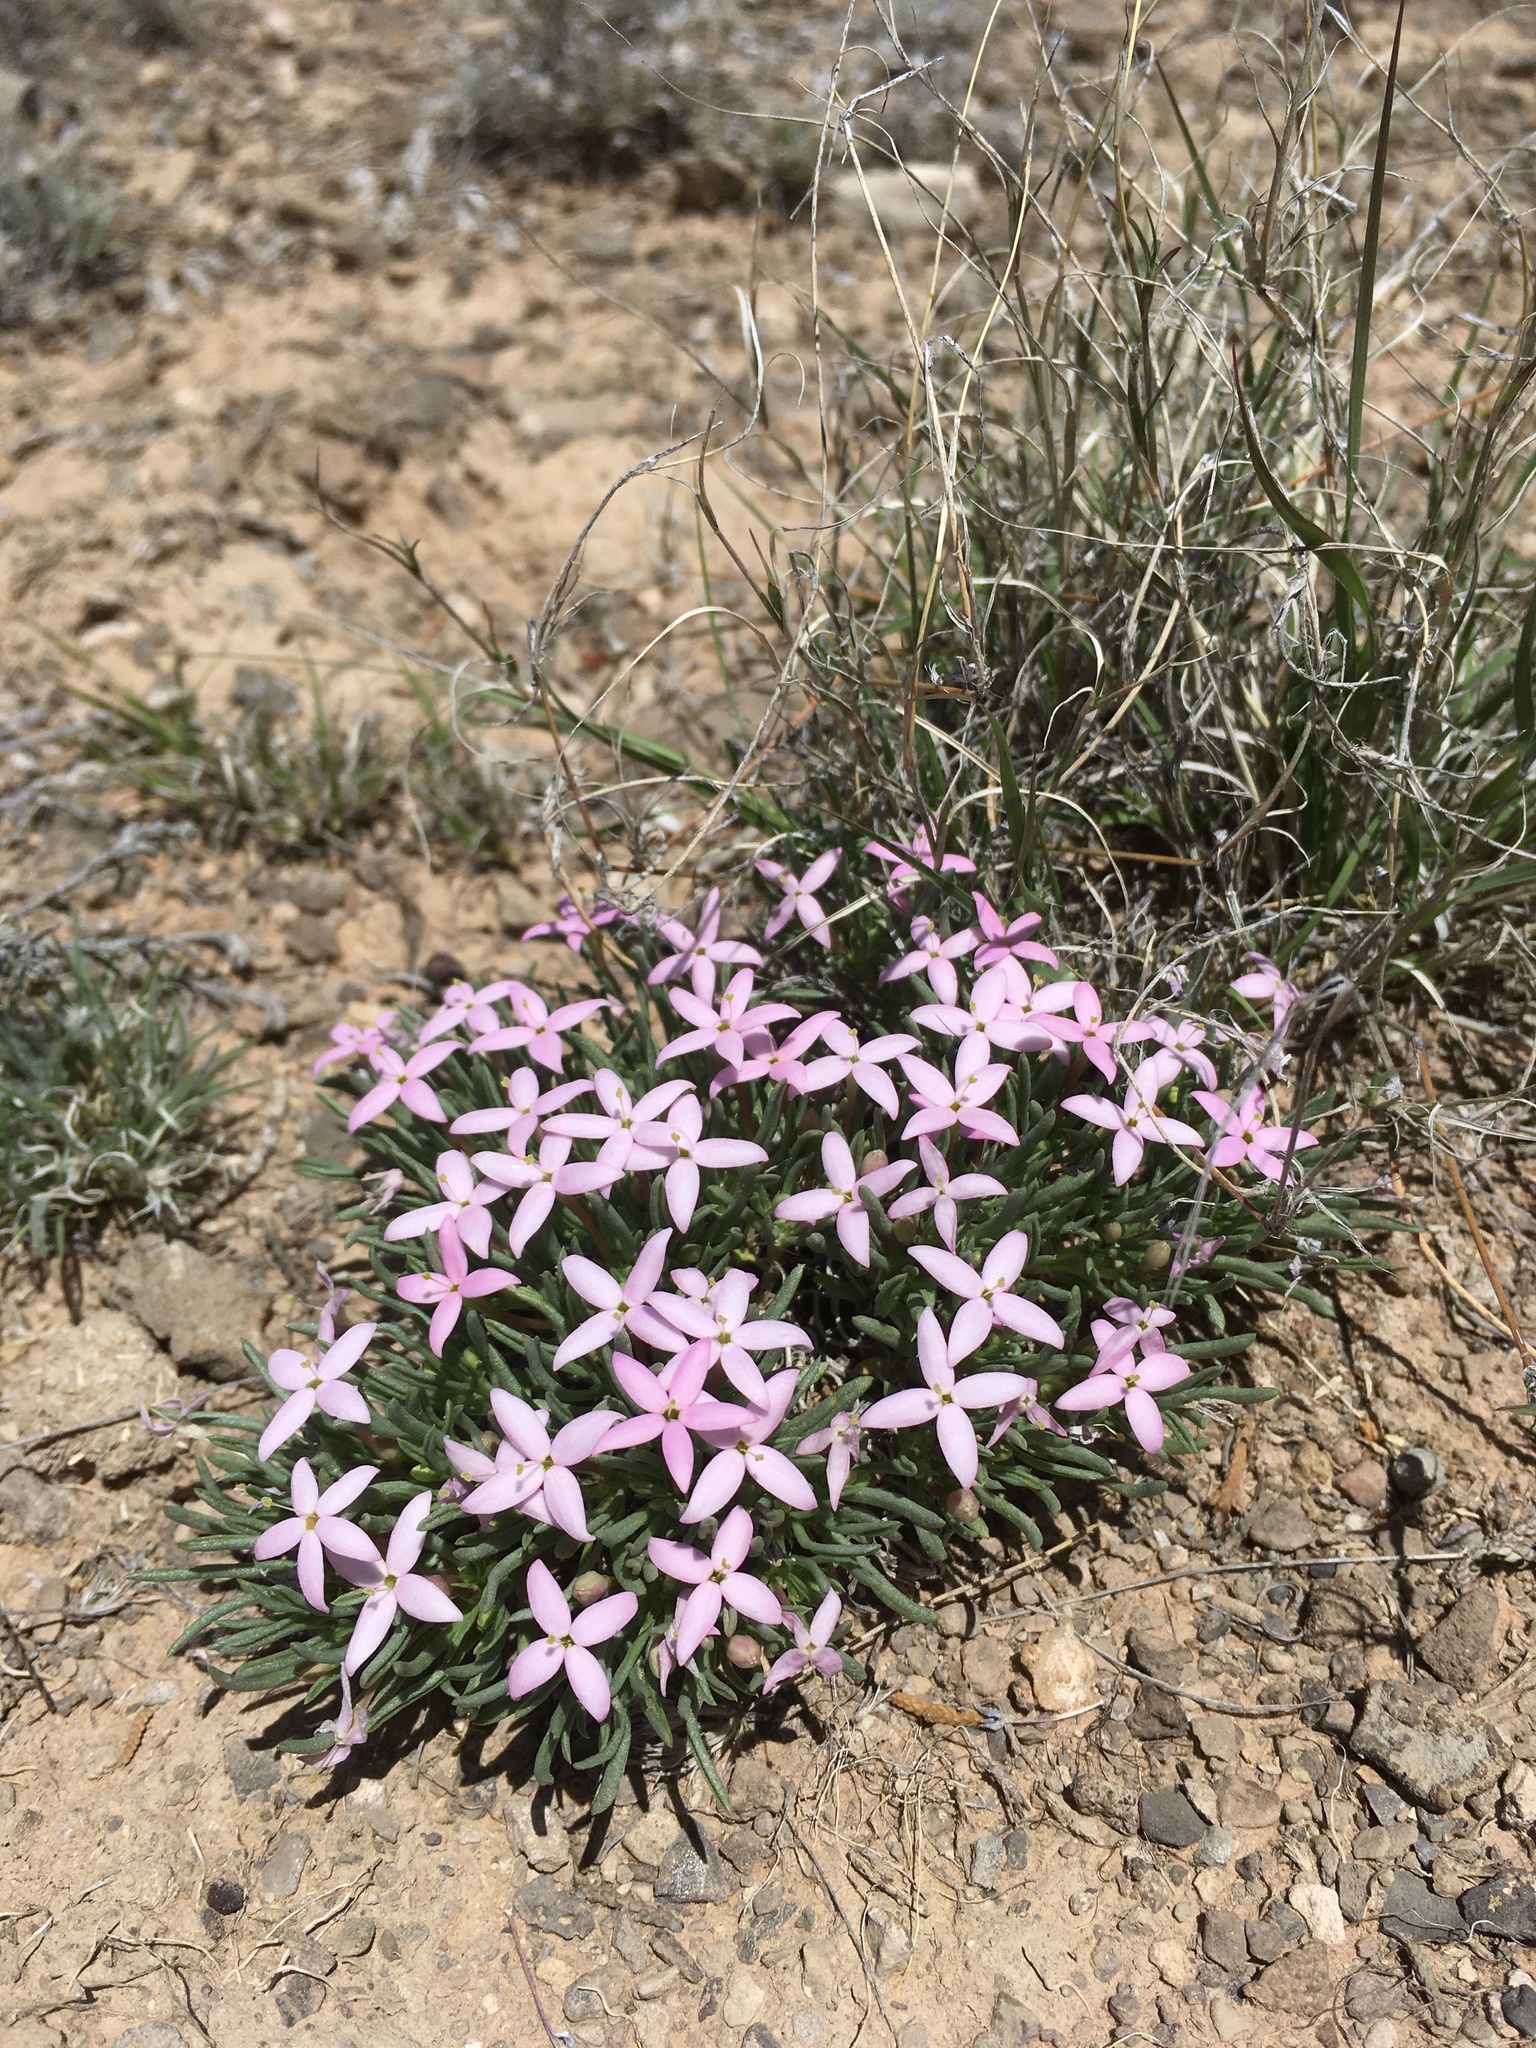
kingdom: Plantae
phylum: Tracheophyta
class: Magnoliopsida
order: Gentianales
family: Rubiaceae
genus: Houstonia
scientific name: Houstonia rubra
